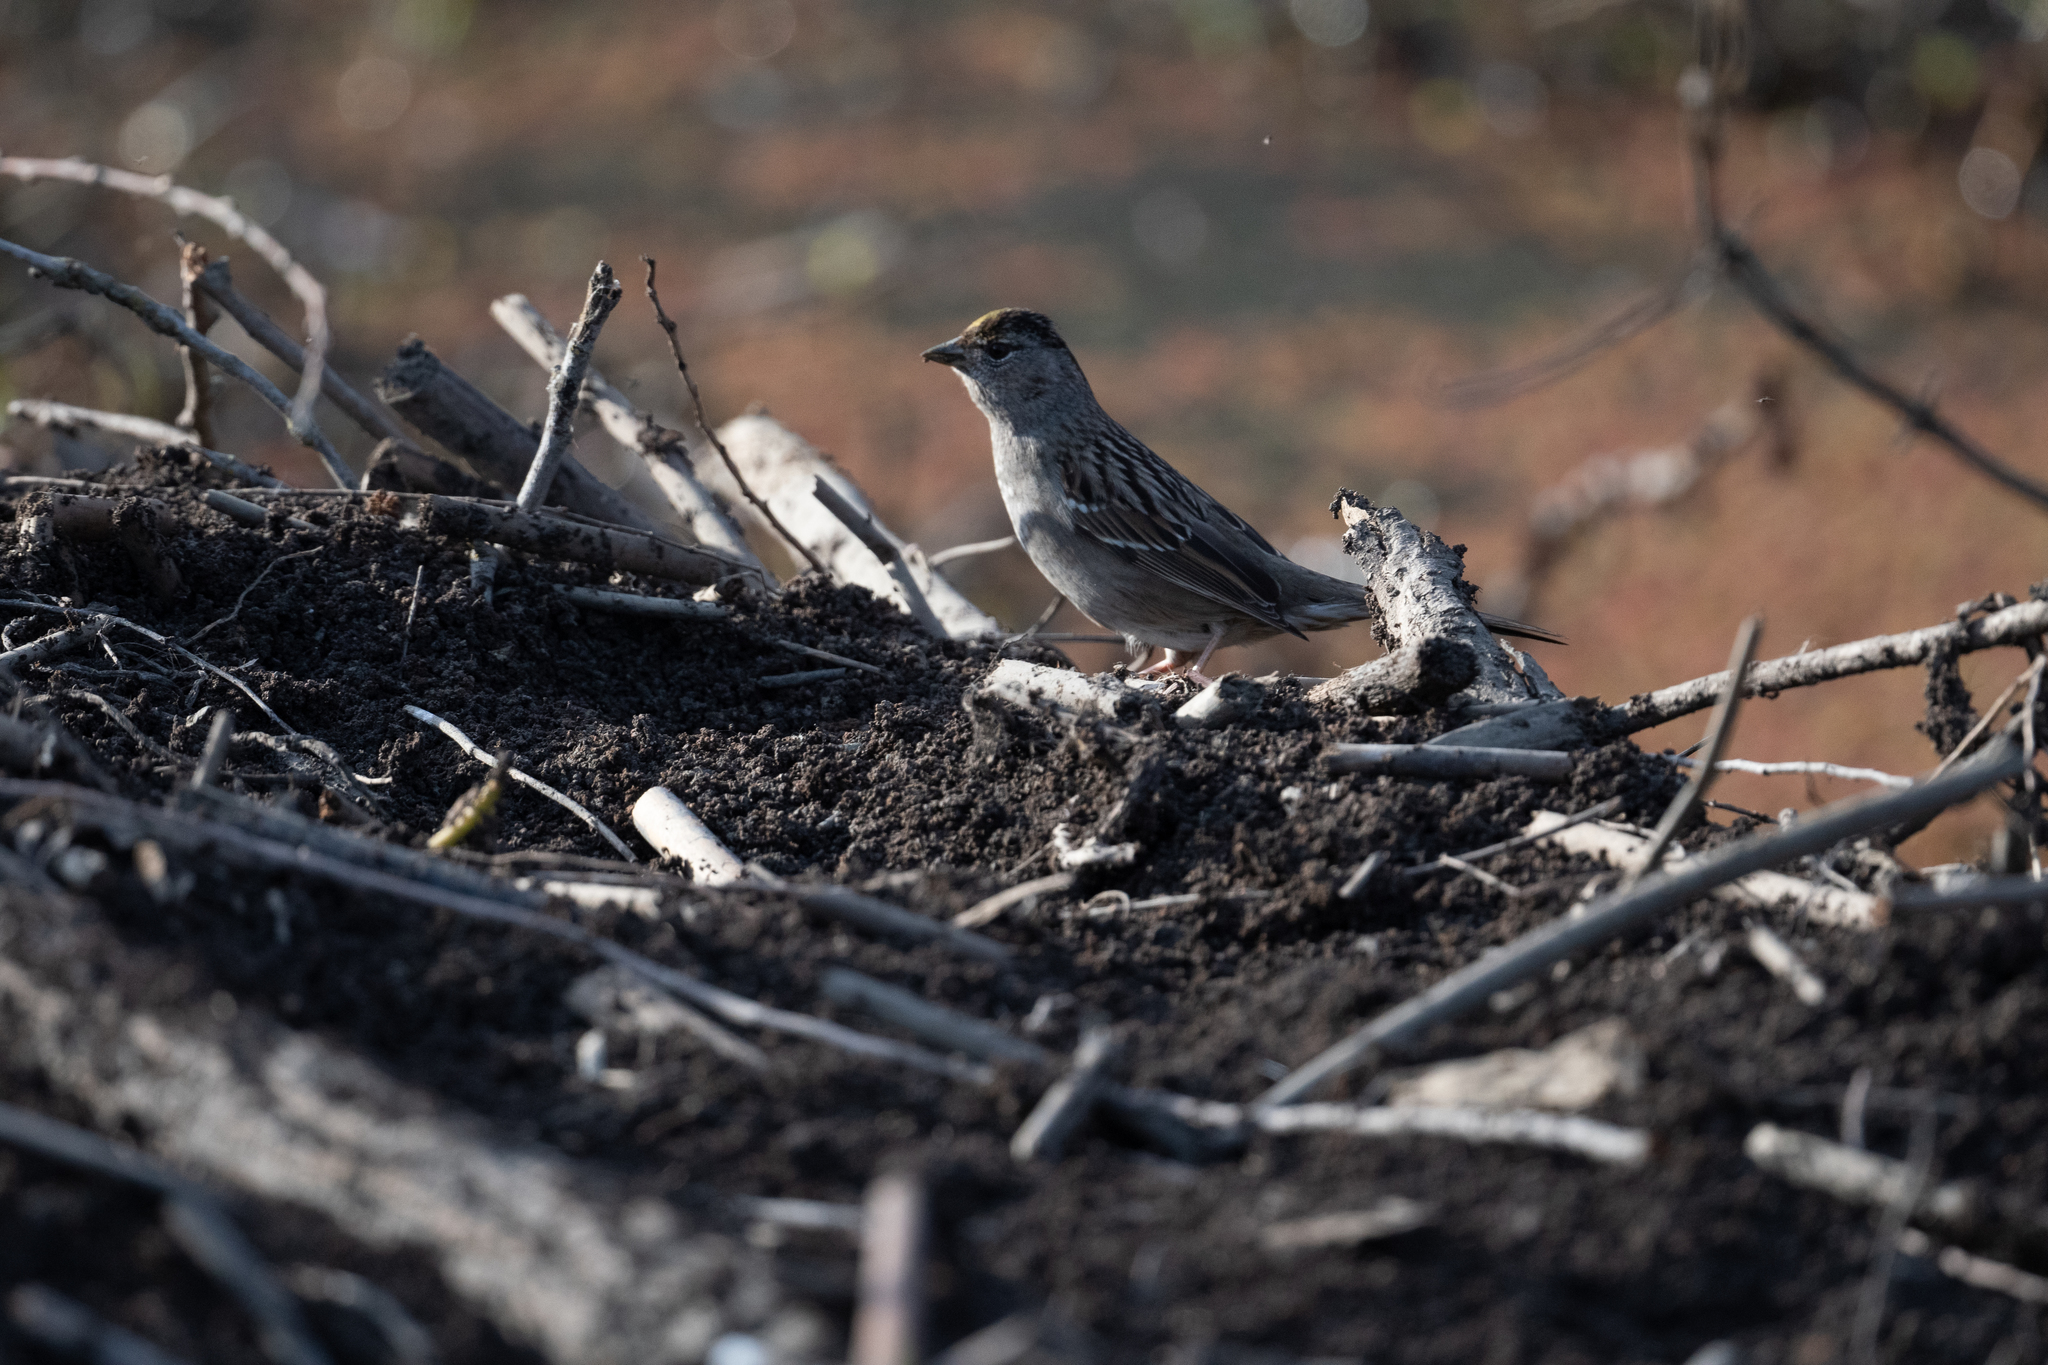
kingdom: Animalia
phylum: Chordata
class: Aves
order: Passeriformes
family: Passerellidae
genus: Zonotrichia
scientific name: Zonotrichia atricapilla
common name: Golden-crowned sparrow
